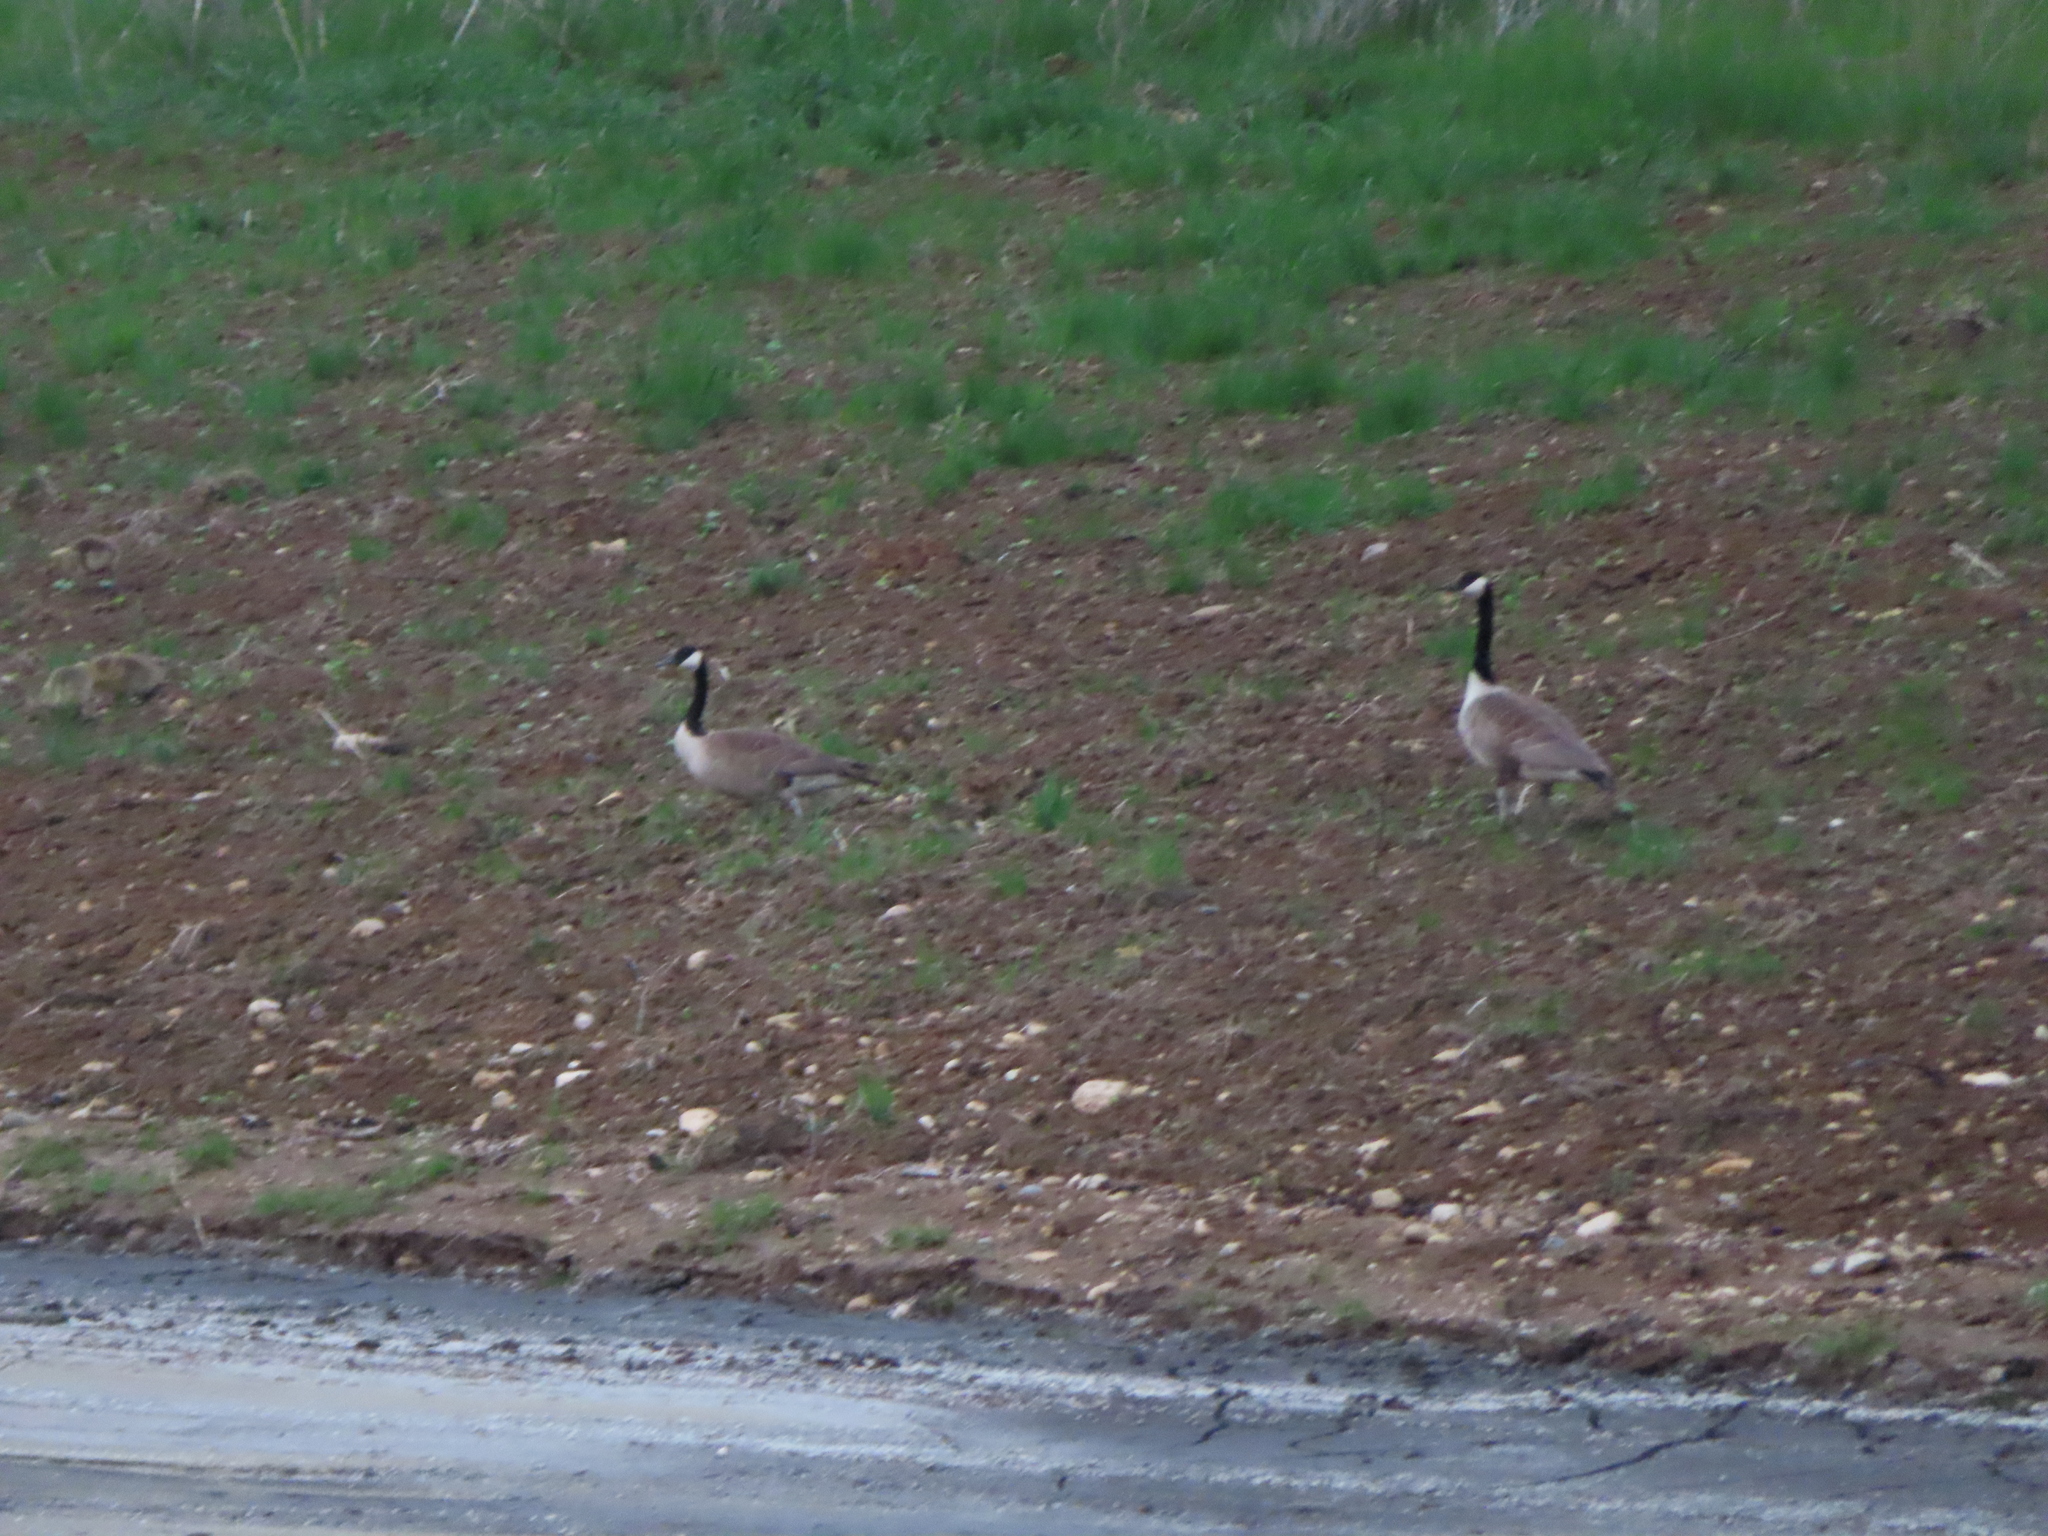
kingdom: Animalia
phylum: Chordata
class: Aves
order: Anseriformes
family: Anatidae
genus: Branta
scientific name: Branta canadensis
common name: Canada goose
